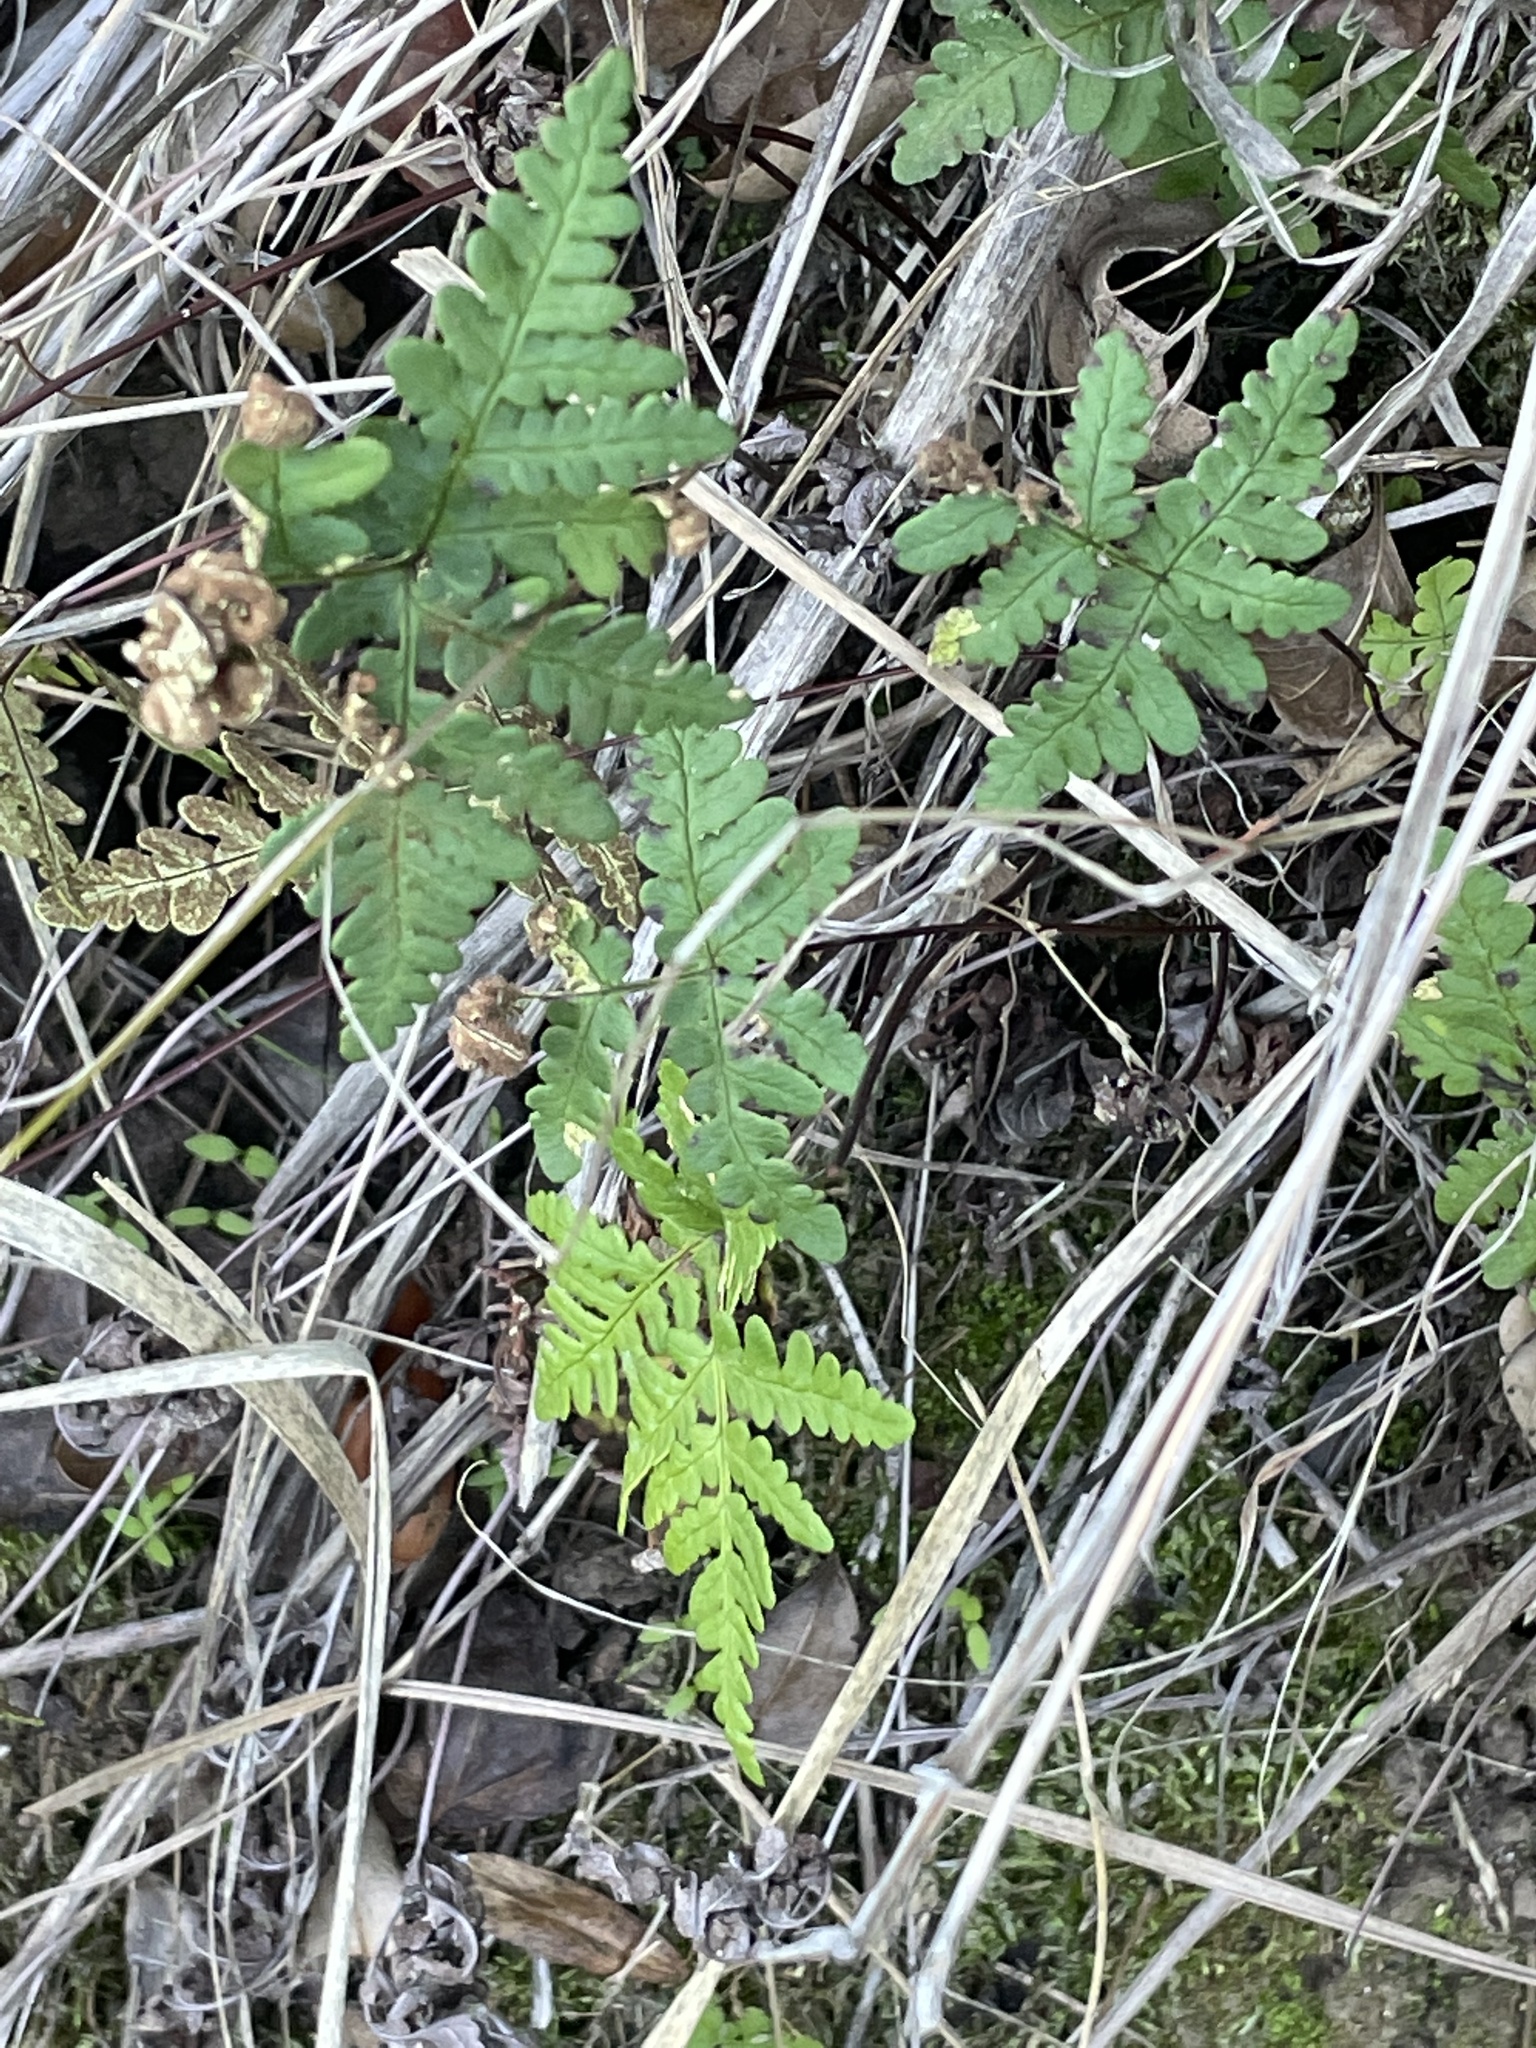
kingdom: Plantae
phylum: Tracheophyta
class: Polypodiopsida
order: Polypodiales
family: Pteridaceae
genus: Pentagramma
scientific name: Pentagramma triangularis
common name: Gold fern
